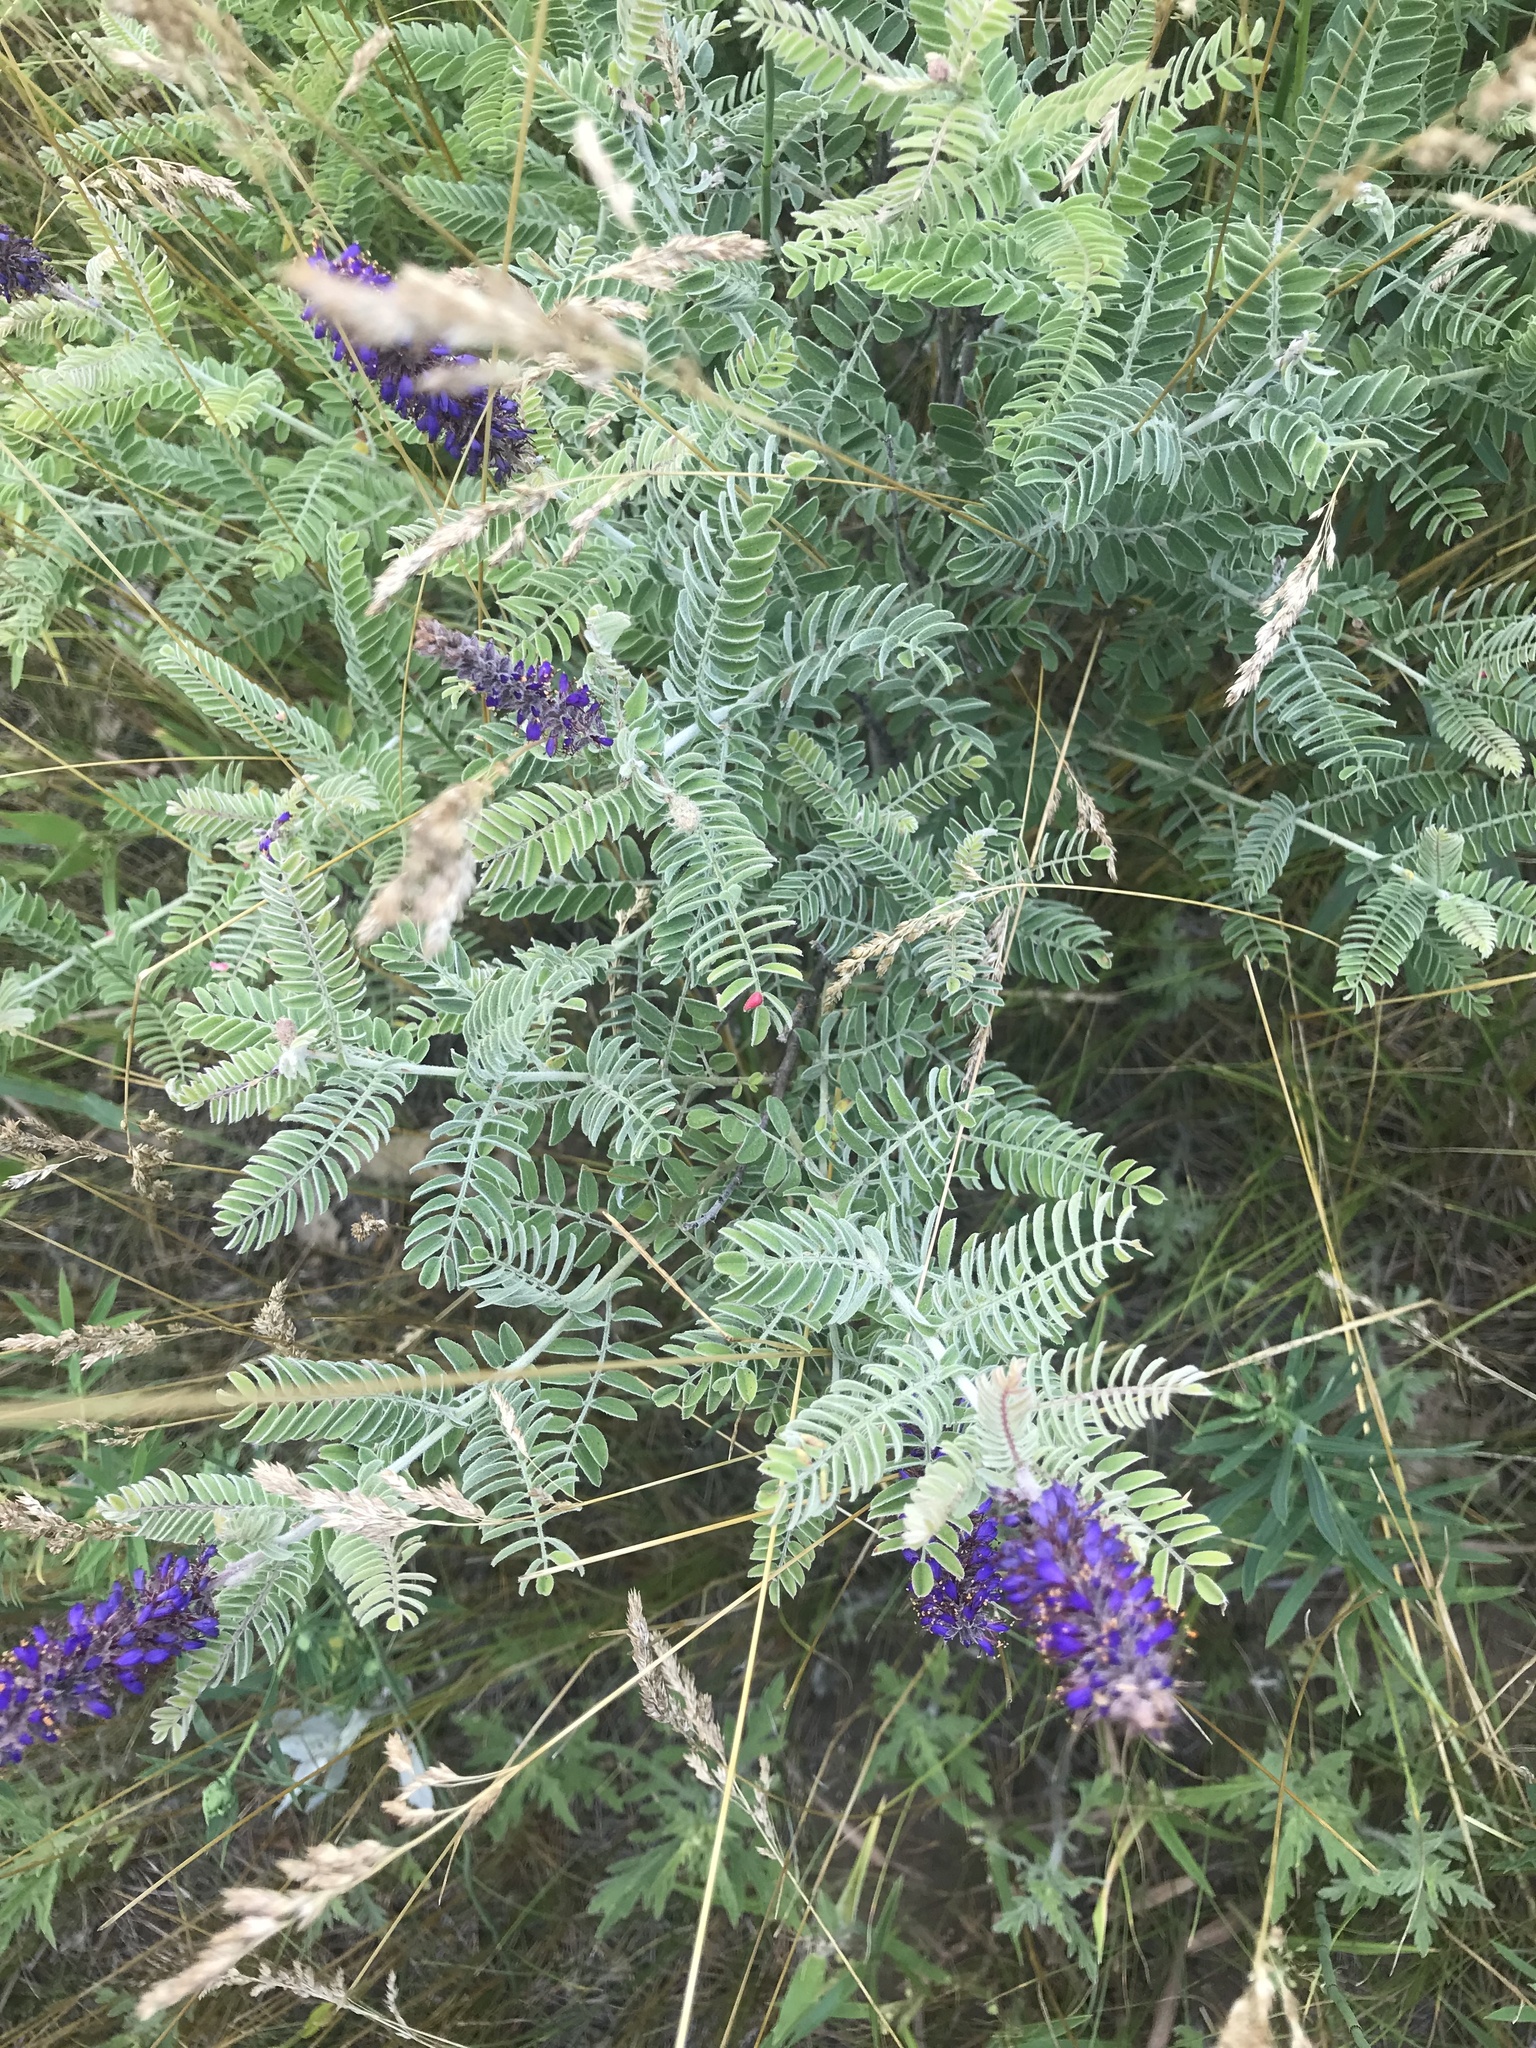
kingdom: Plantae
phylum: Tracheophyta
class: Magnoliopsida
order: Fabales
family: Fabaceae
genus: Amorpha
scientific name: Amorpha canescens
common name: Leadplant
